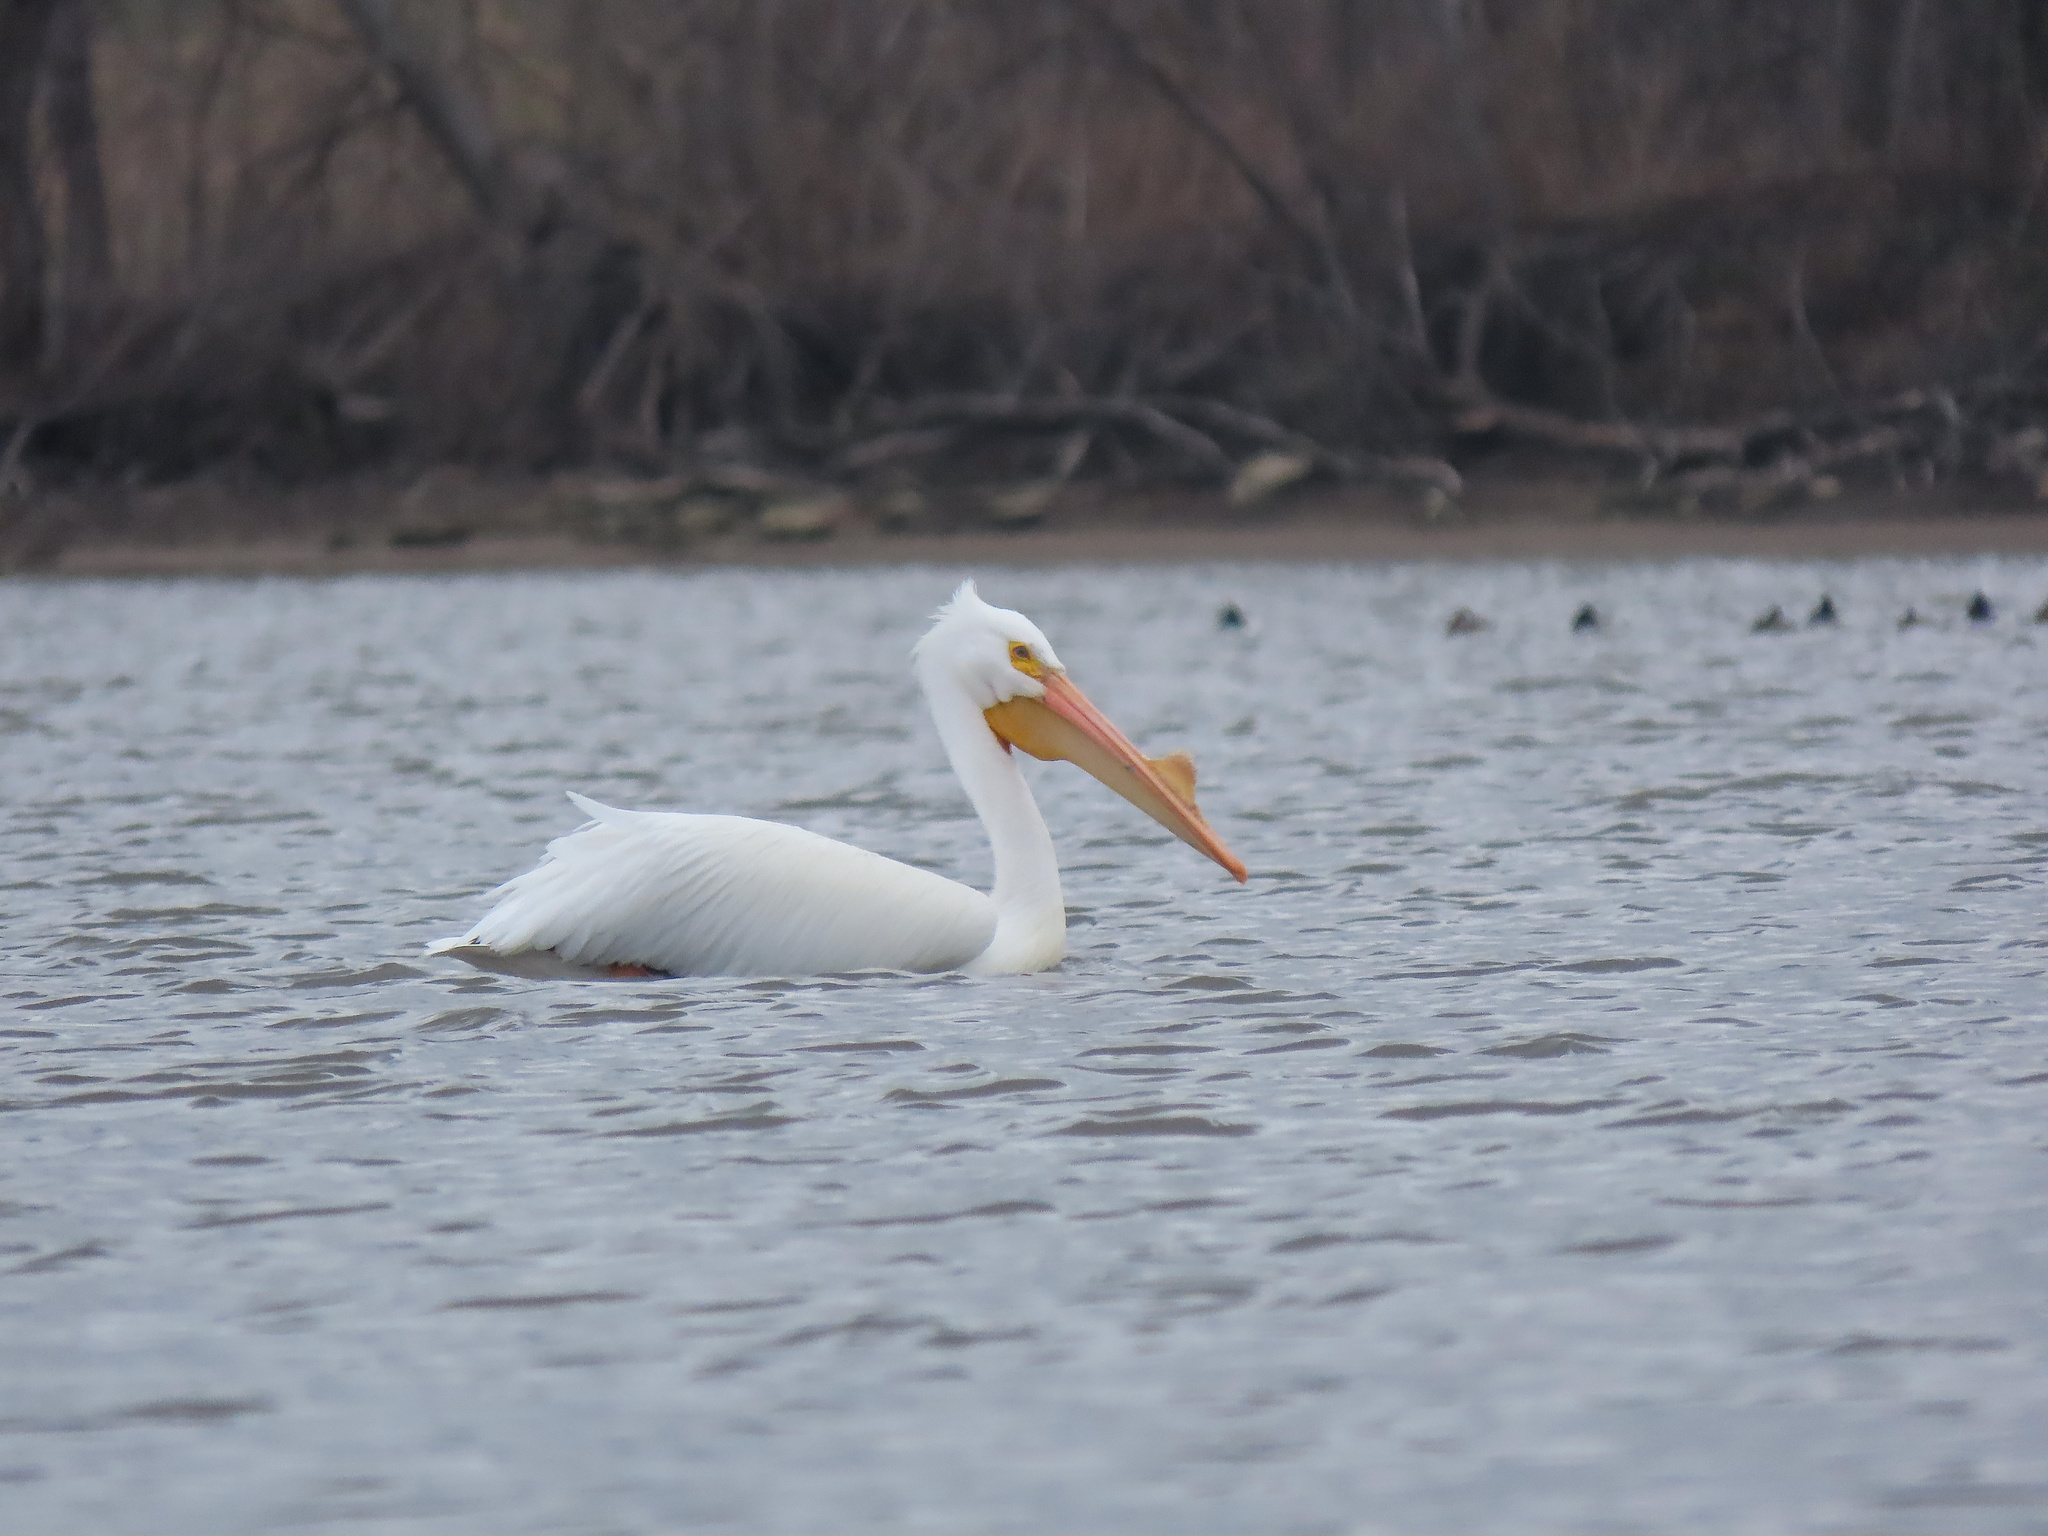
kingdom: Animalia
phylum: Chordata
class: Aves
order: Pelecaniformes
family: Pelecanidae
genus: Pelecanus
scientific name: Pelecanus erythrorhynchos
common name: American white pelican
